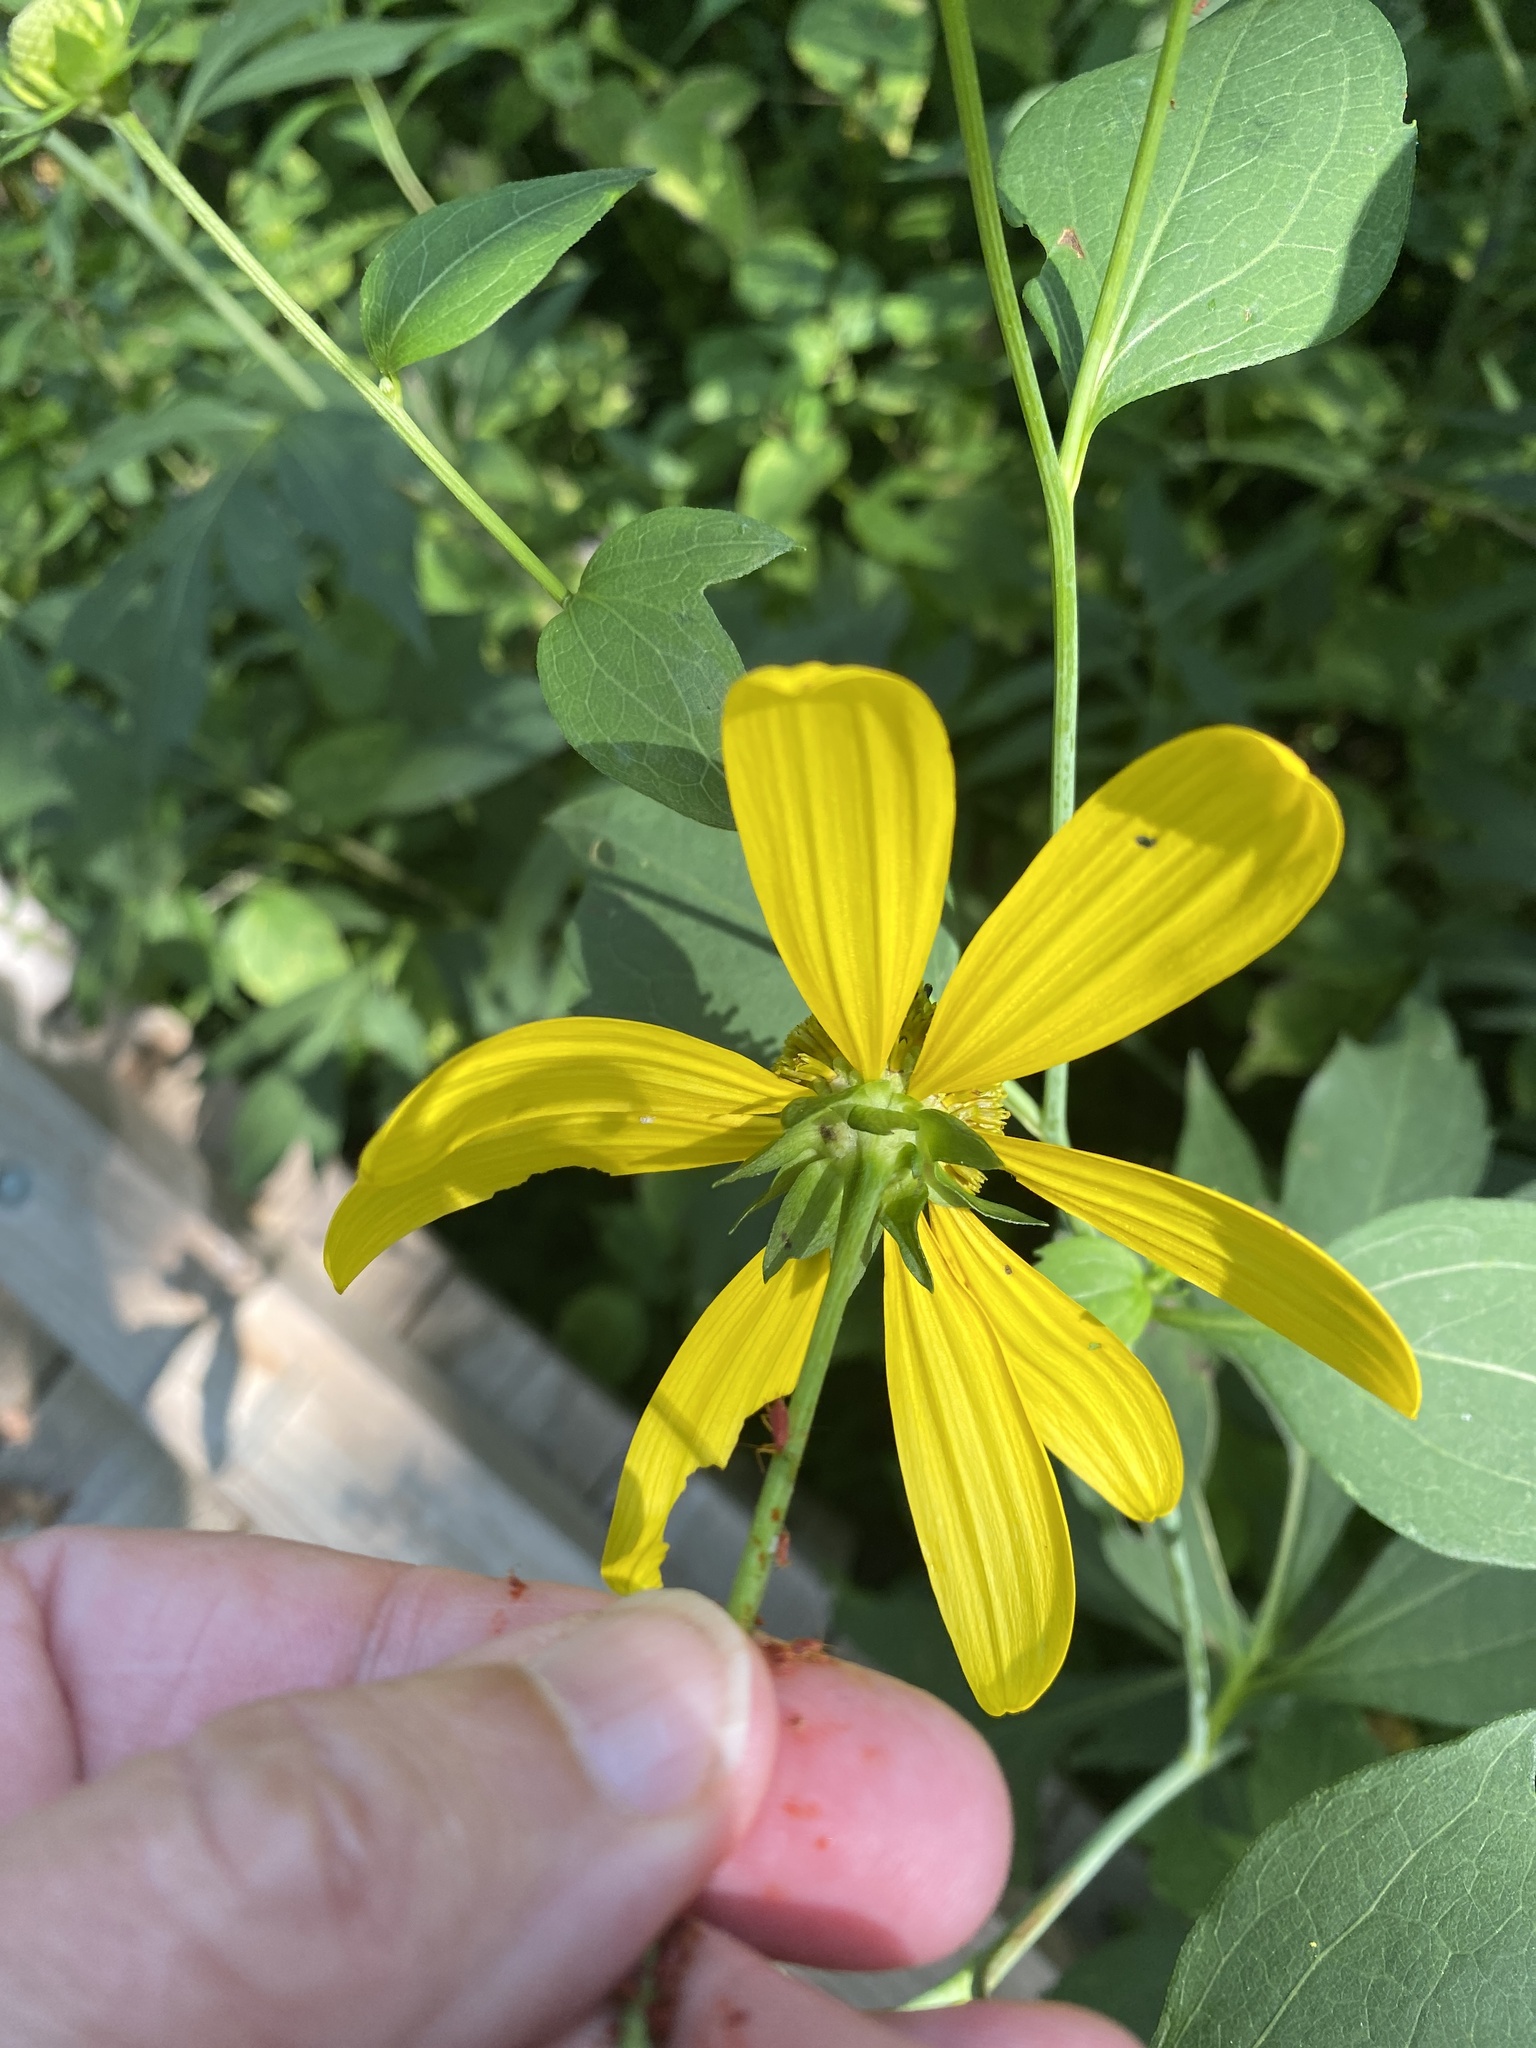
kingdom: Plantae
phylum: Tracheophyta
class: Magnoliopsida
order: Asterales
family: Asteraceae
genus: Rudbeckia
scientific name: Rudbeckia laciniata
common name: Coneflower
